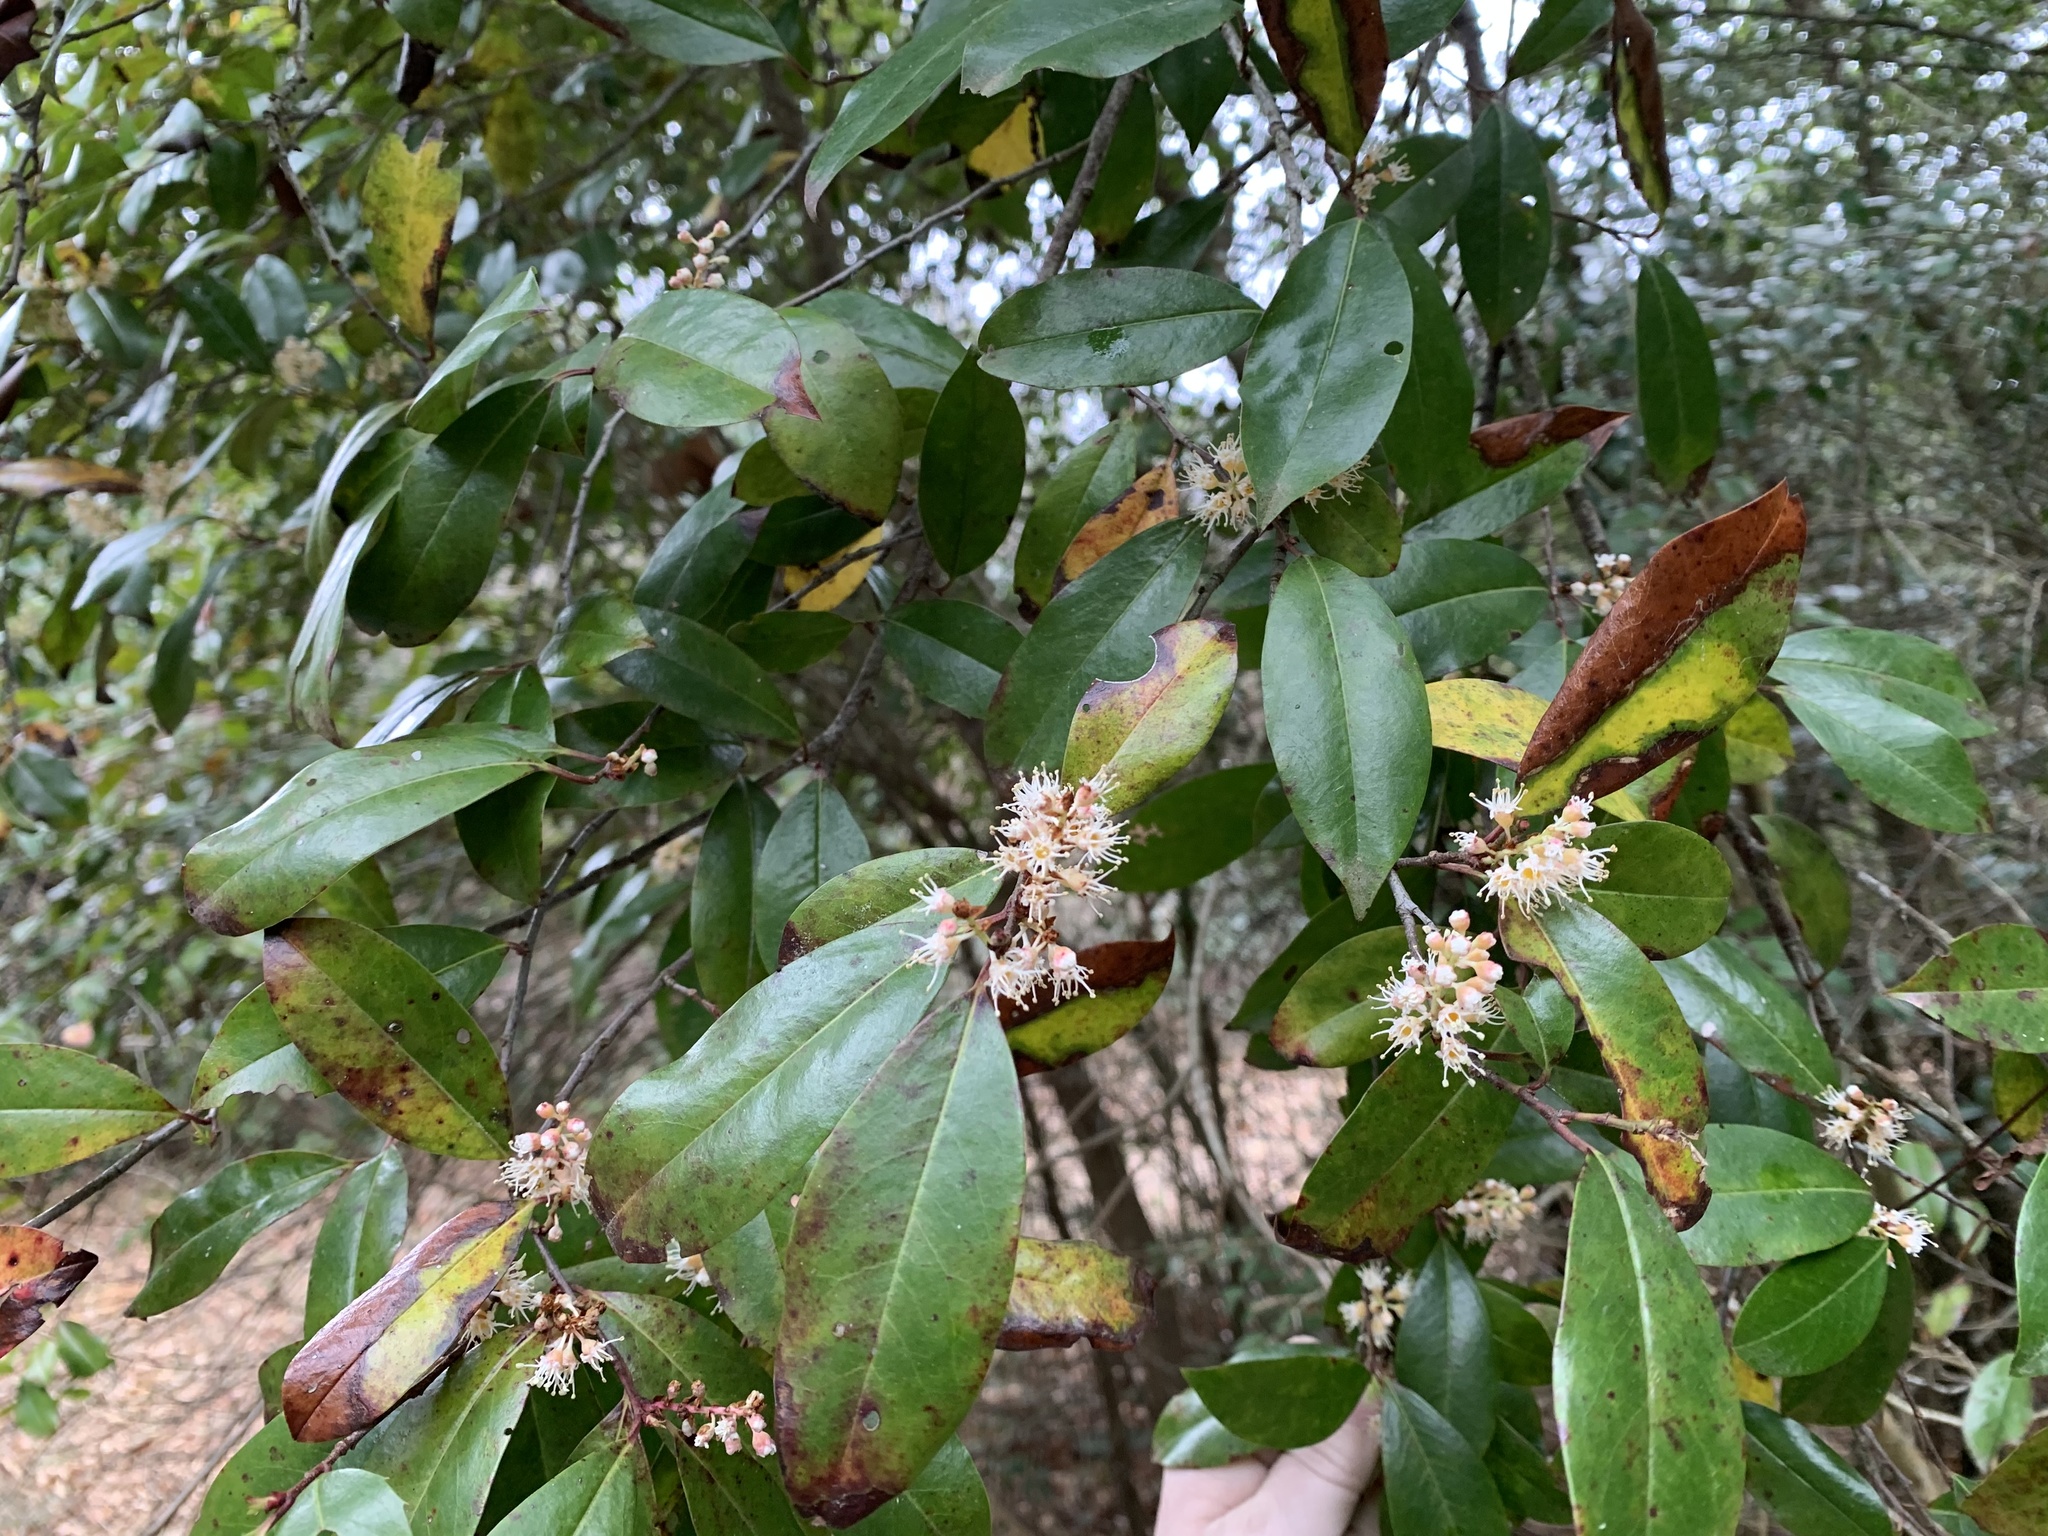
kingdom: Plantae
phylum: Tracheophyta
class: Magnoliopsida
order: Rosales
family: Rosaceae
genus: Prunus
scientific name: Prunus caroliniana
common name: Carolina laurel cherry
